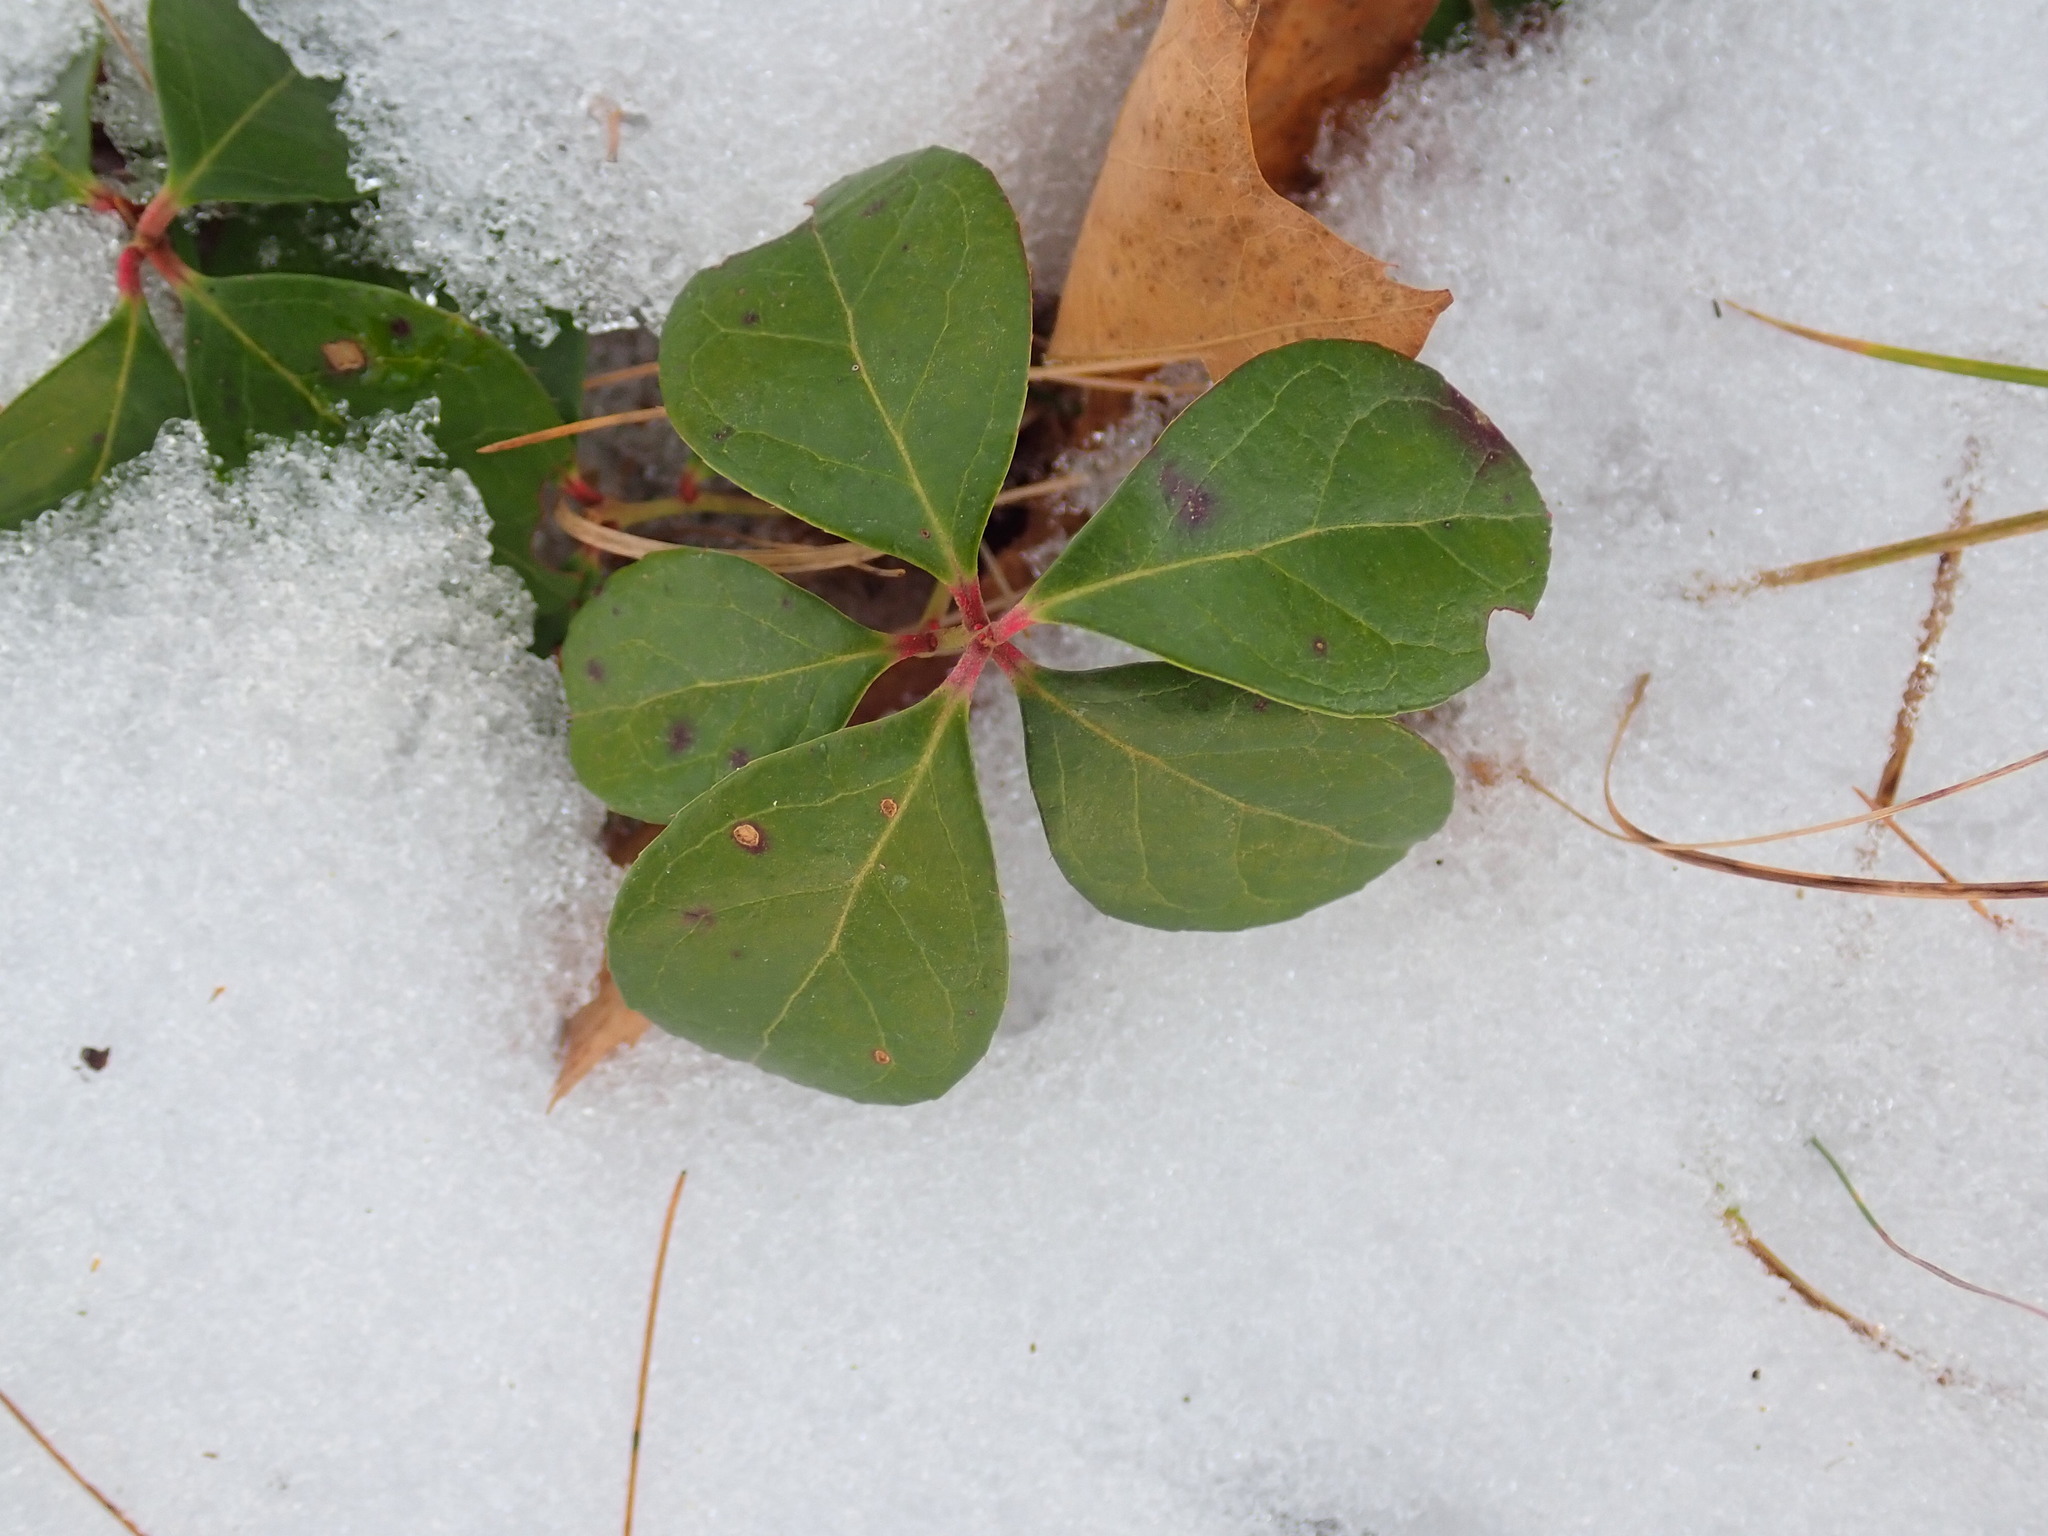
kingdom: Plantae
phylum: Tracheophyta
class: Magnoliopsida
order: Ericales
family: Ericaceae
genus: Gaultheria
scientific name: Gaultheria procumbens
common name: Checkerberry
